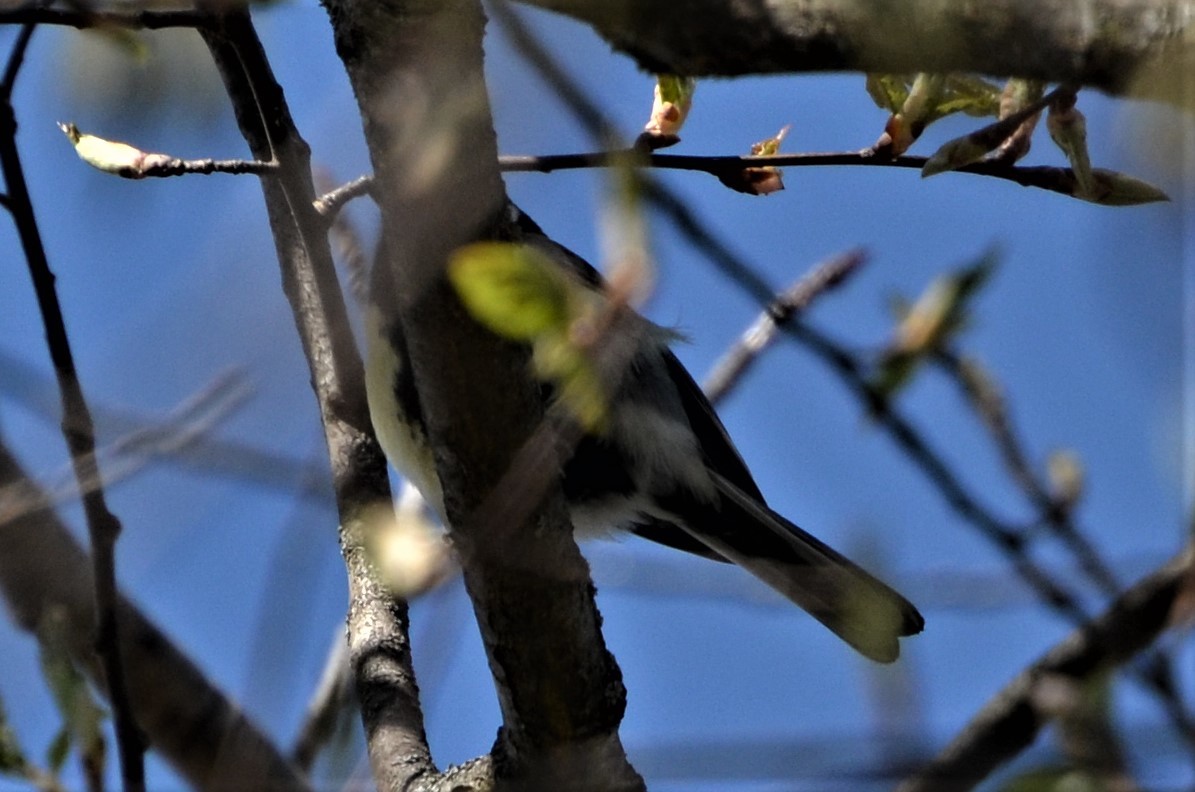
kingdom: Animalia
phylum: Chordata
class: Aves
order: Passeriformes
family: Paridae
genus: Parus
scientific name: Parus major
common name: Great tit
